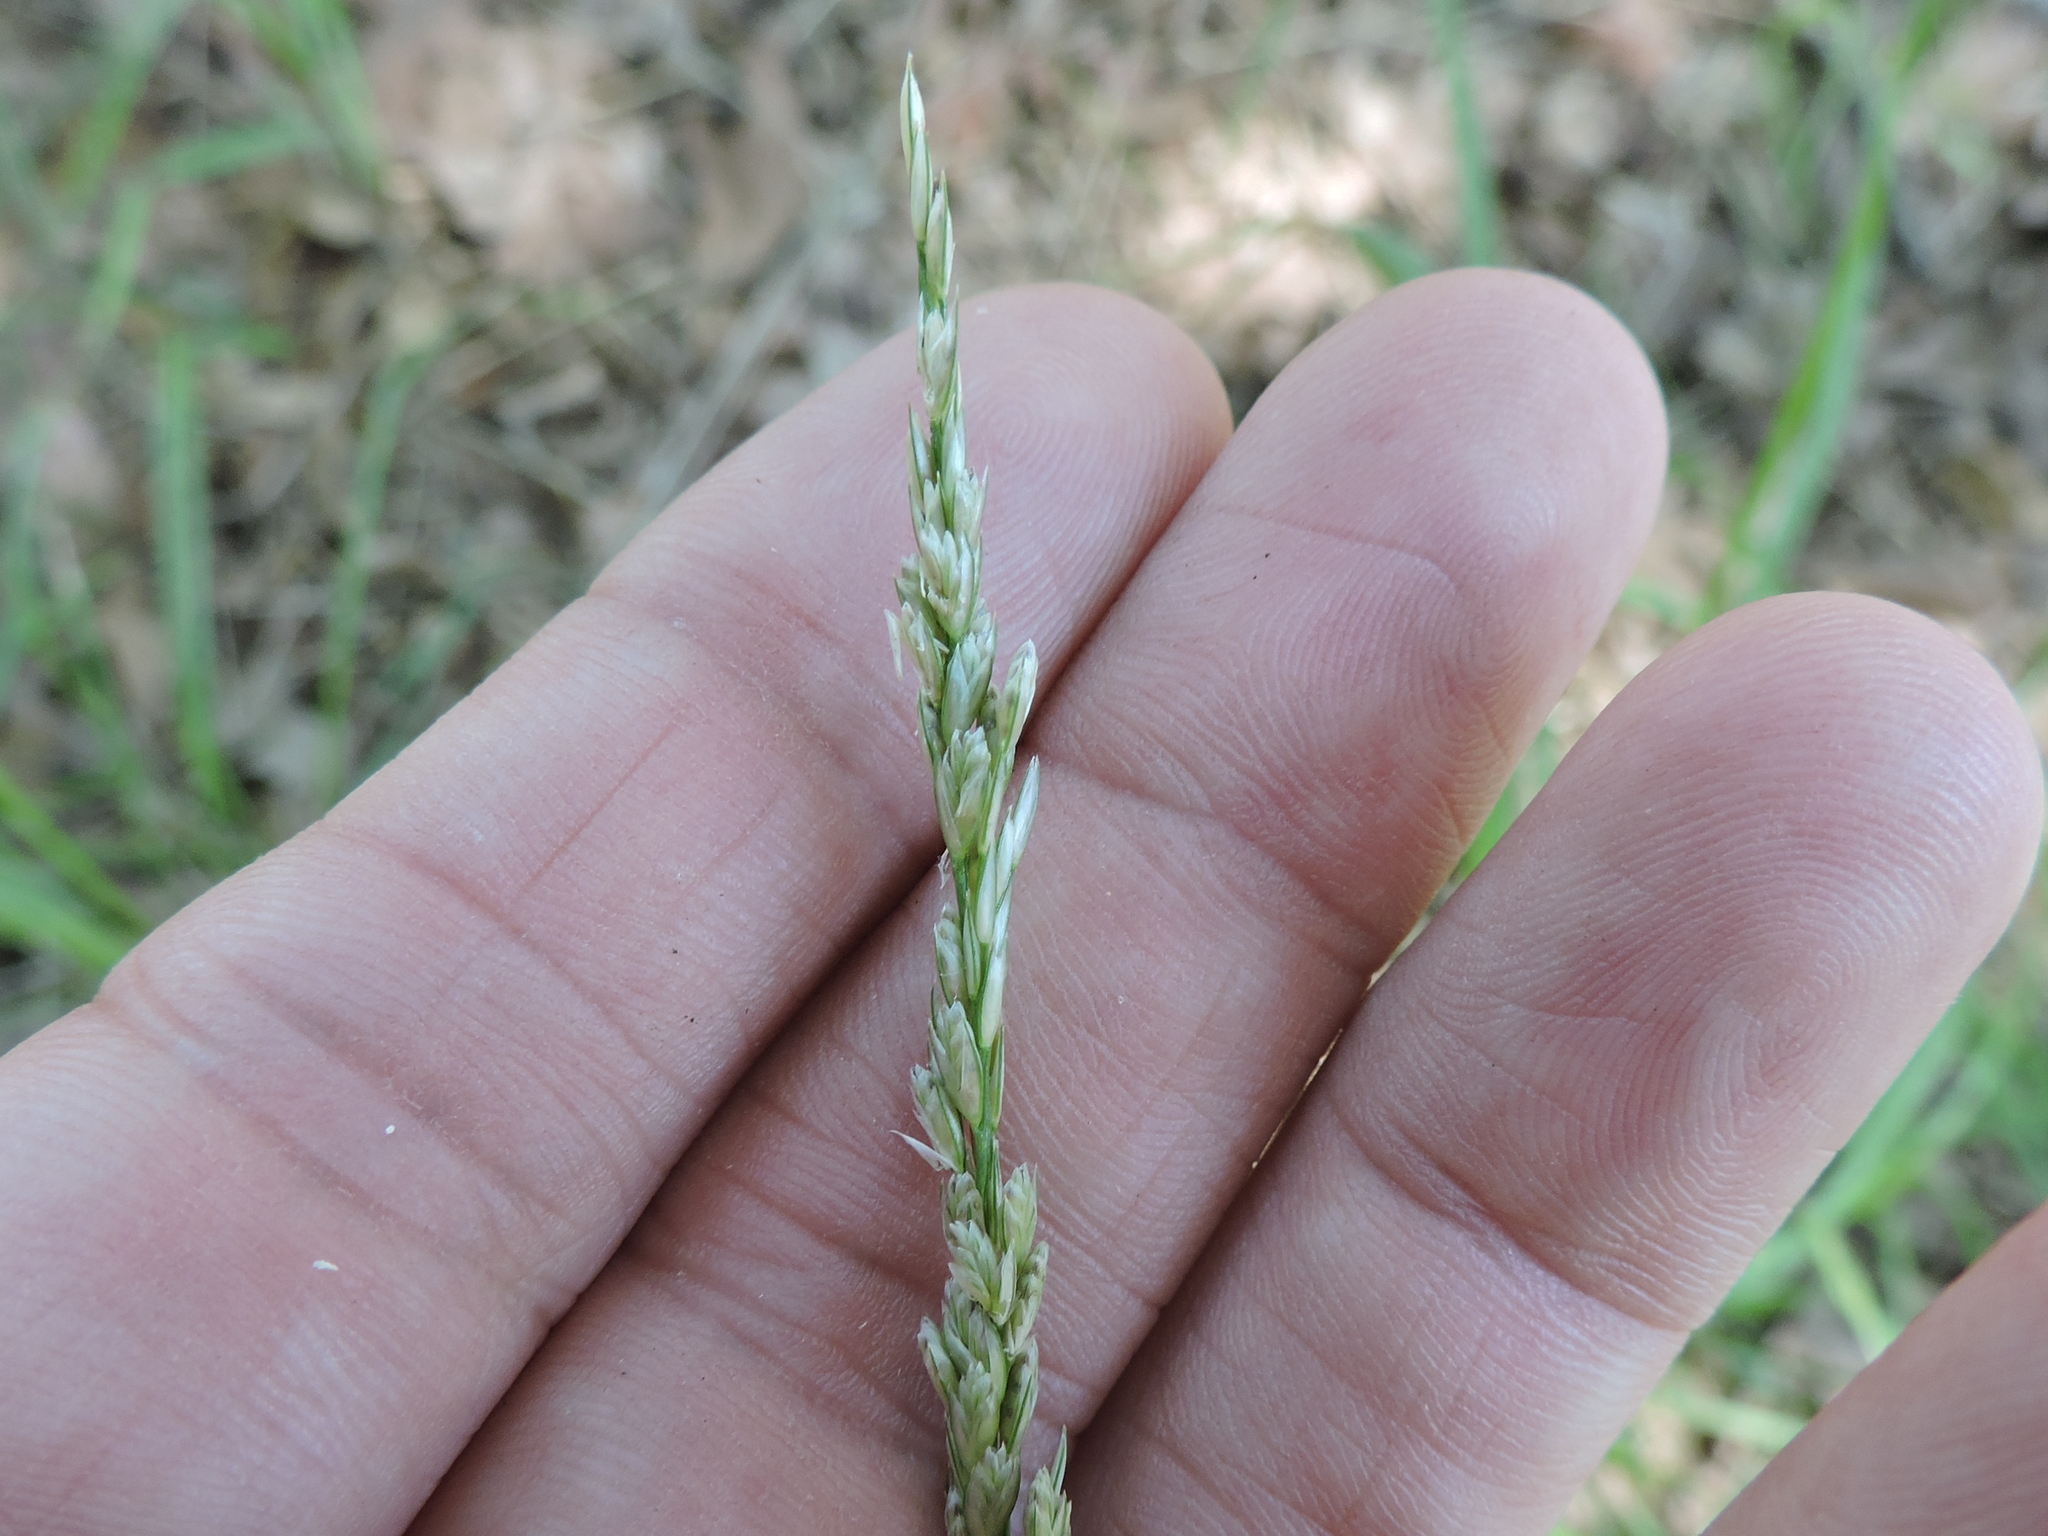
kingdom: Plantae
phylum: Tracheophyta
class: Liliopsida
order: Poales
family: Poaceae
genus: Tridens
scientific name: Tridens albescens
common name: White tridens
